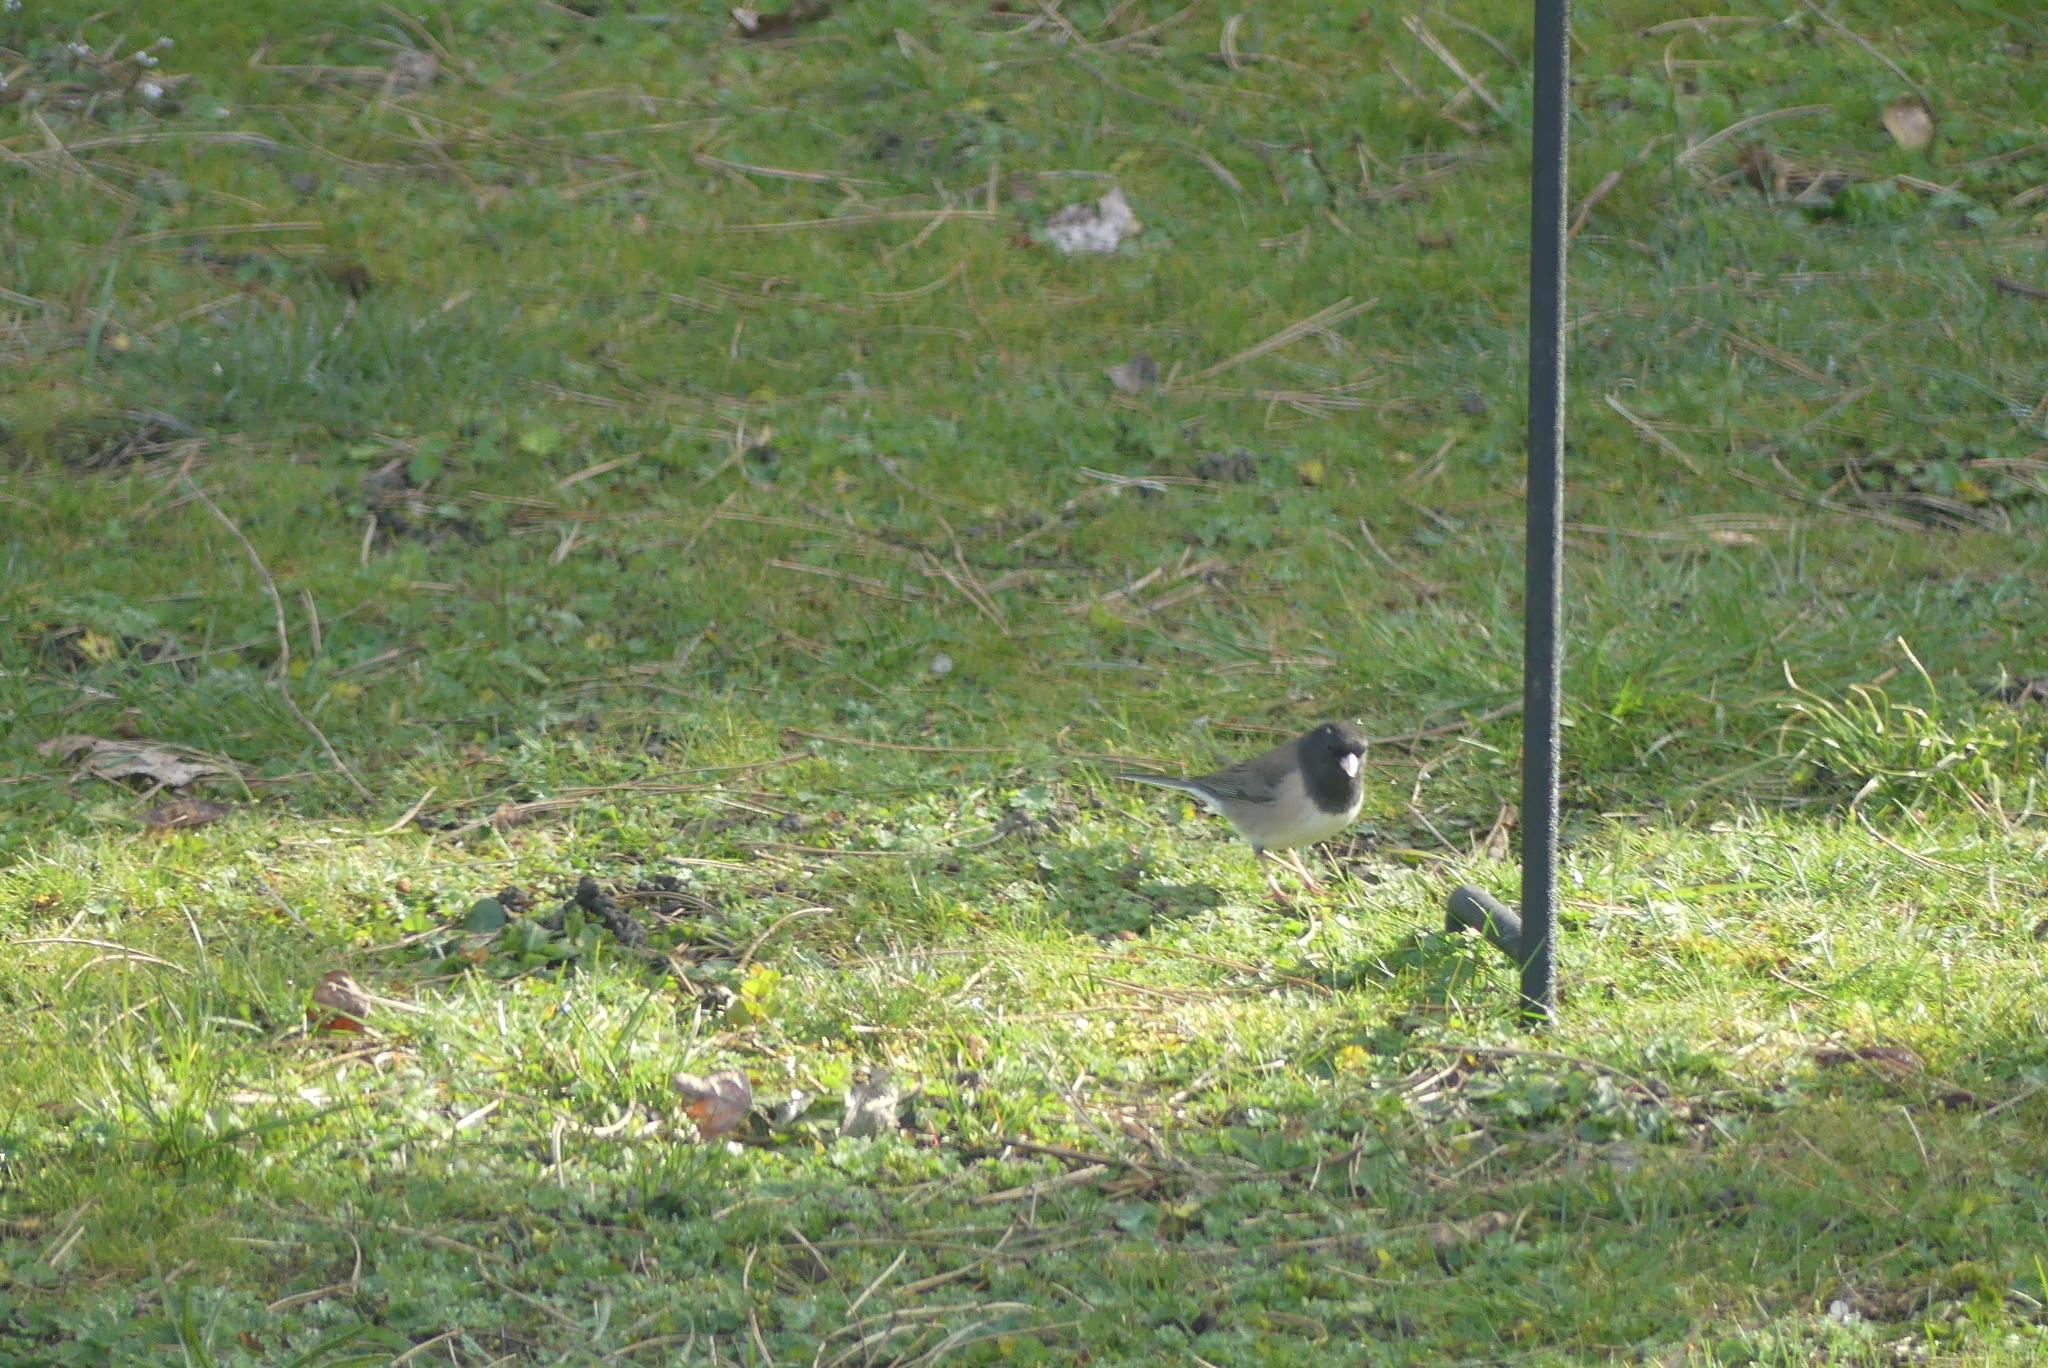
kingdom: Animalia
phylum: Chordata
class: Aves
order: Passeriformes
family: Passerellidae
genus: Junco
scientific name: Junco hyemalis
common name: Dark-eyed junco
